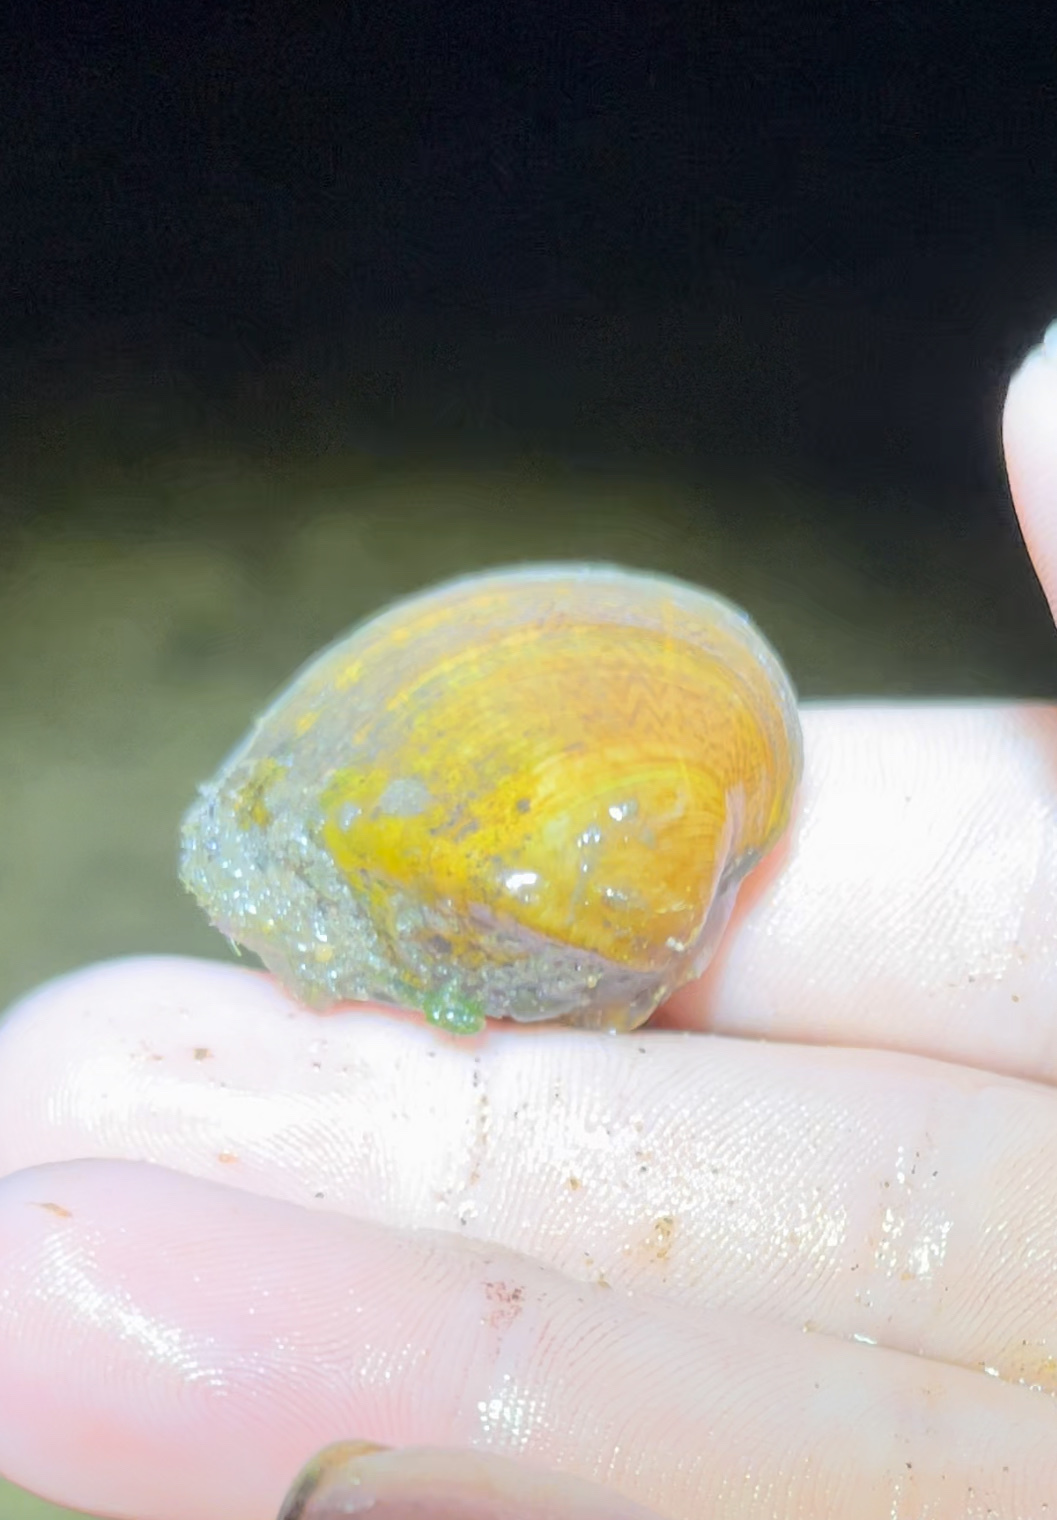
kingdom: Animalia
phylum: Mollusca
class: Bivalvia
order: Unionida
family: Unionidae
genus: Truncilla
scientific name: Truncilla truncata
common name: Deertoe
